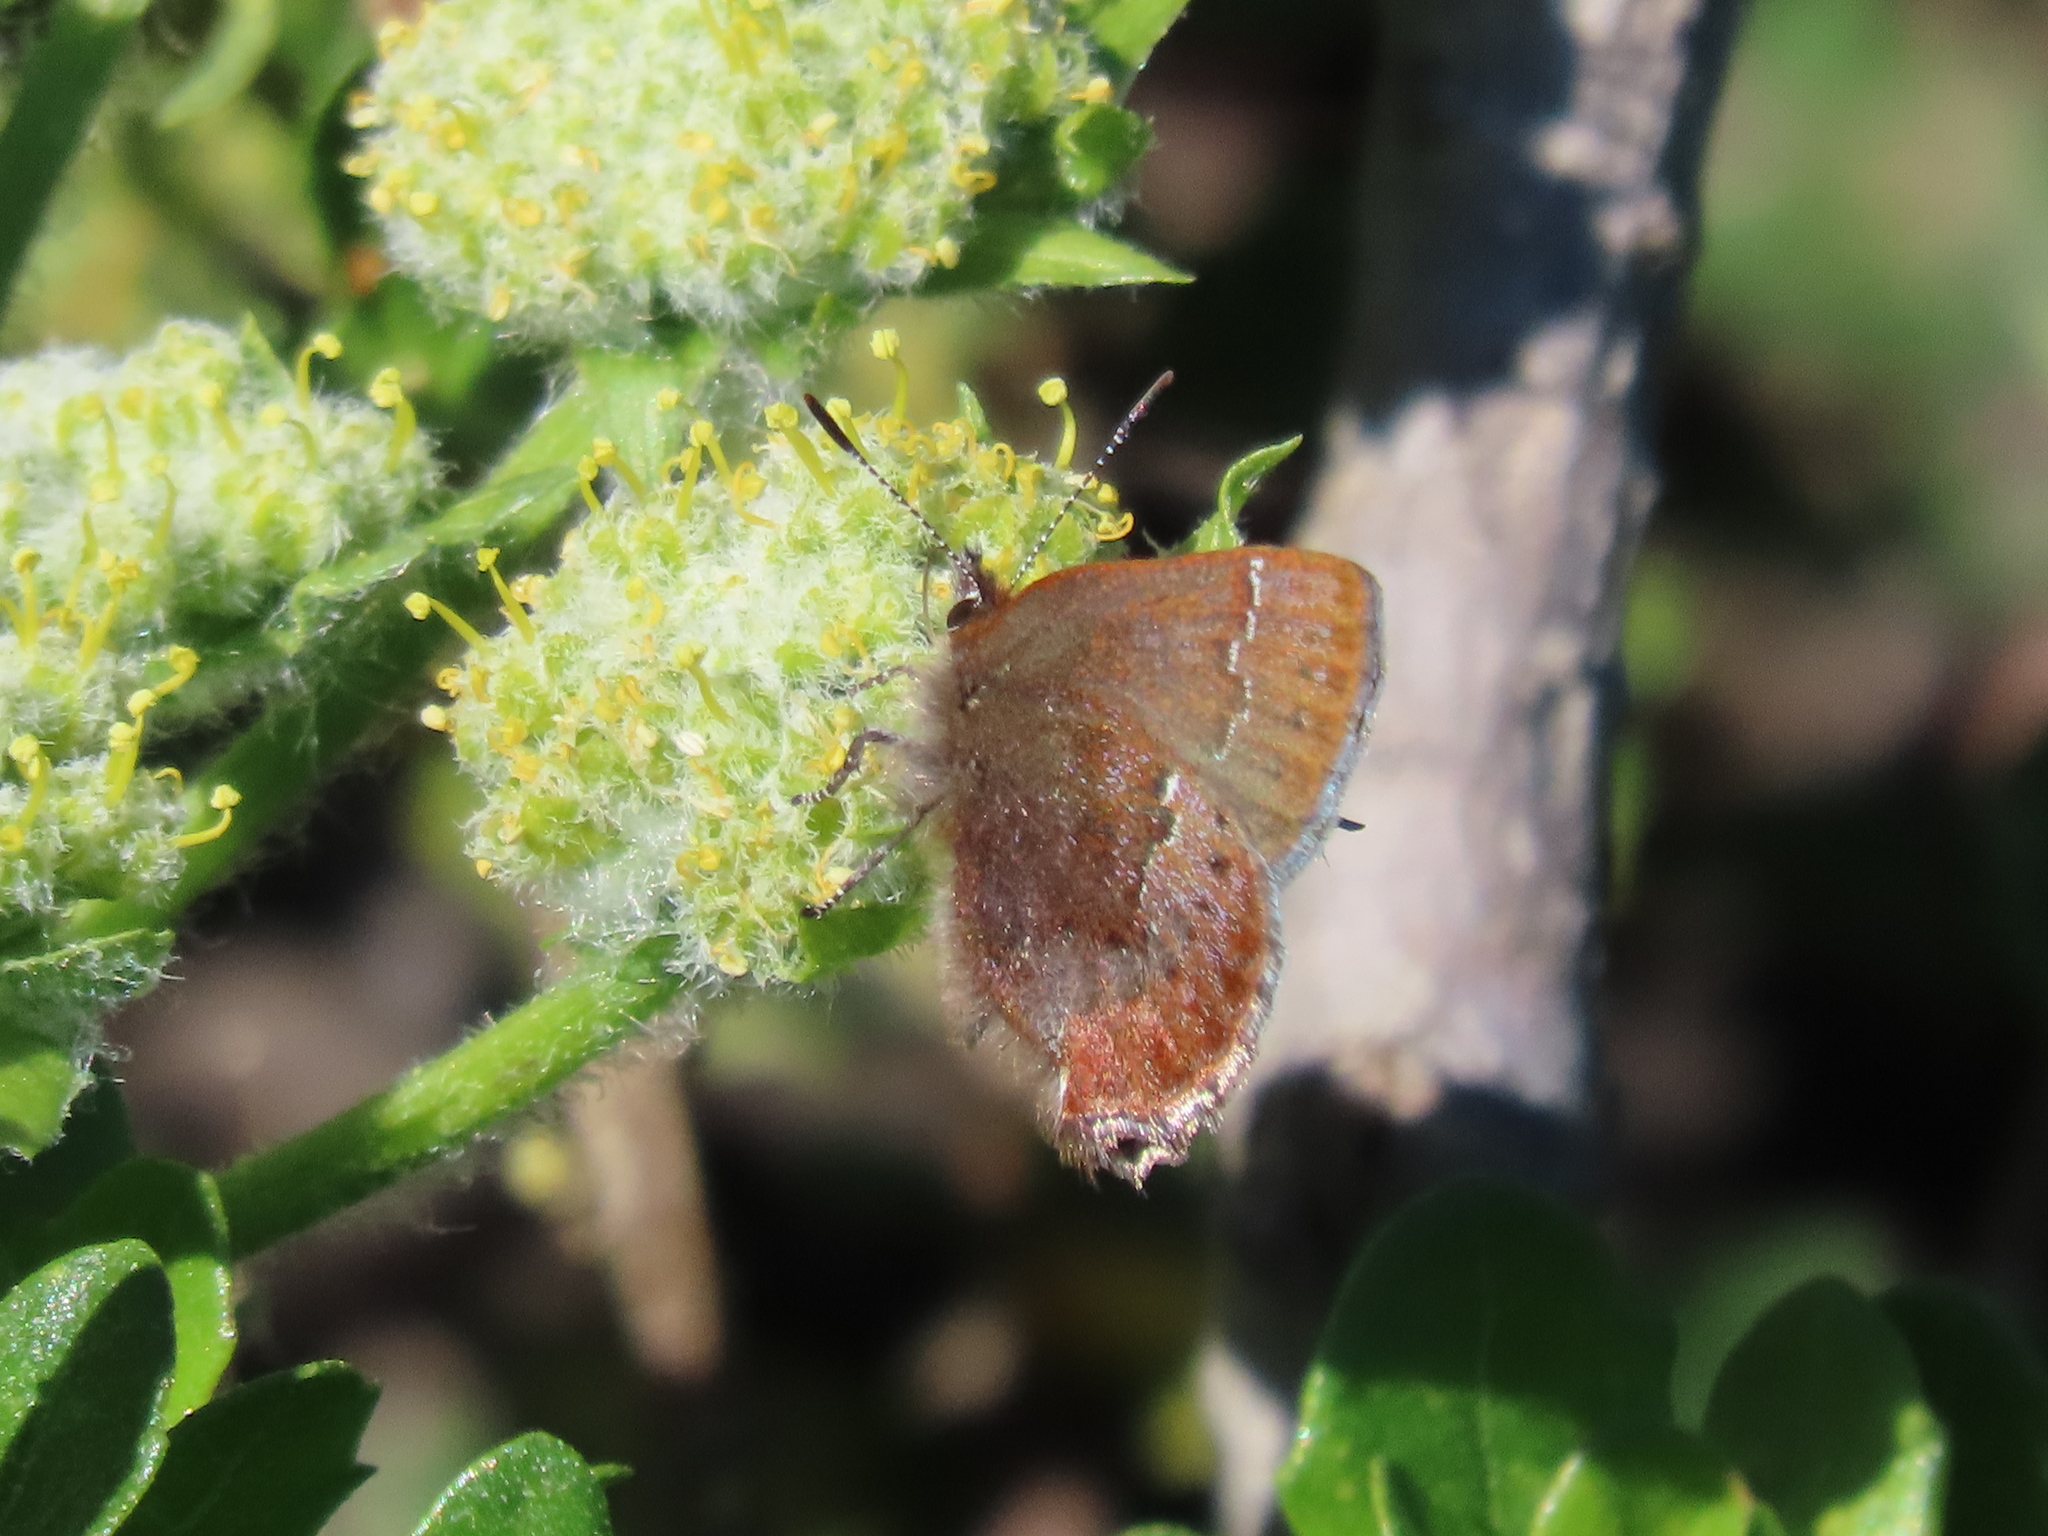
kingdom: Animalia
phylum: Arthropoda
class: Insecta
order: Lepidoptera
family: Lycaenidae
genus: Callophrys
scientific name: Callophrys mossii
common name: Moss' elfin
